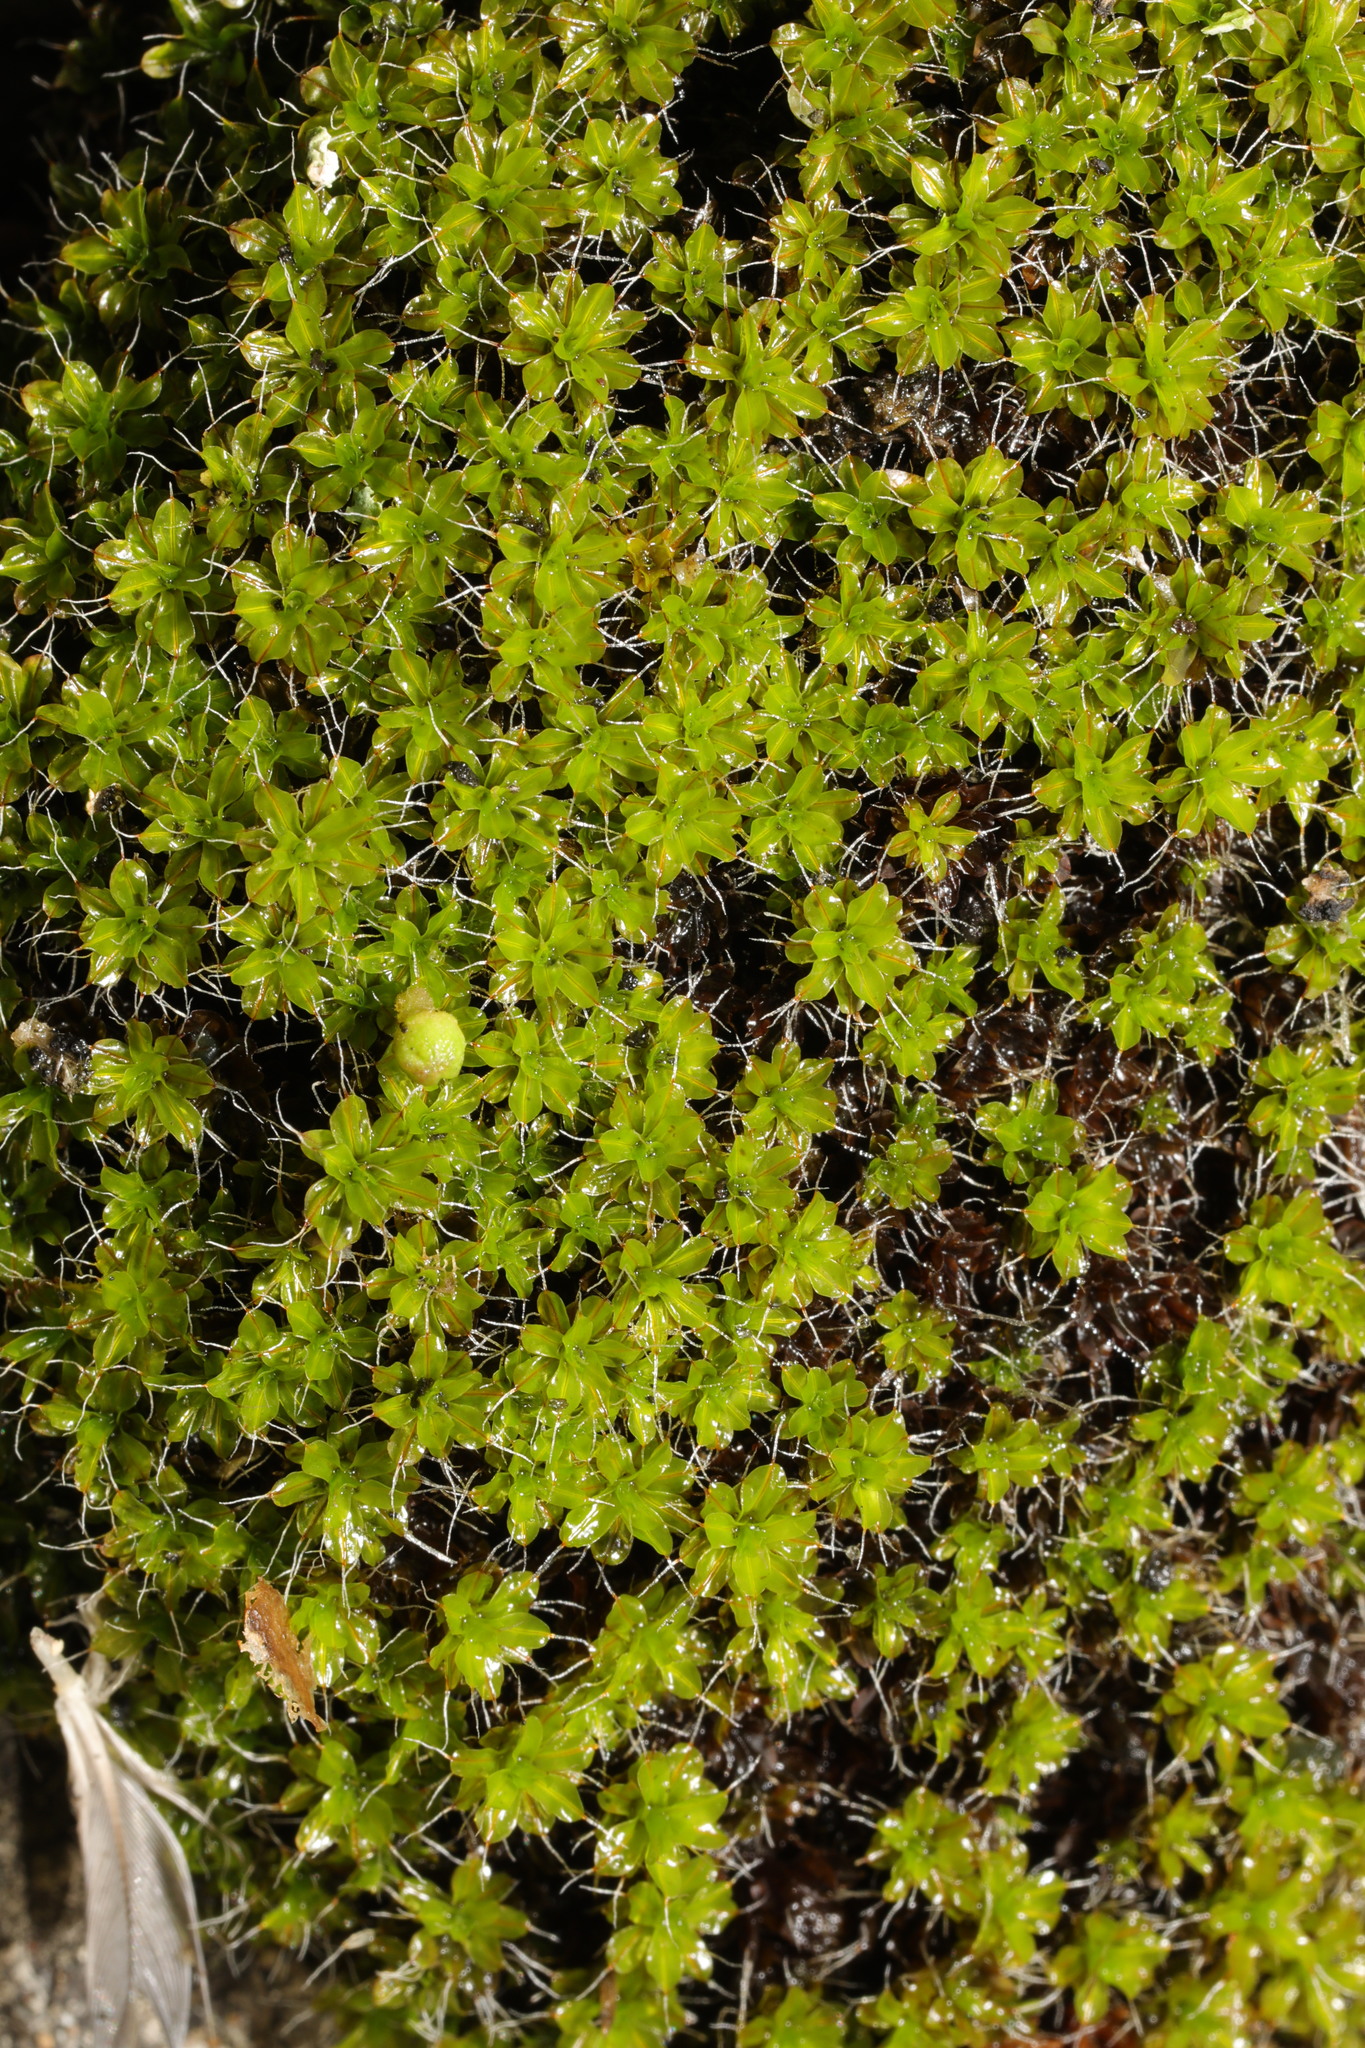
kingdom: Plantae
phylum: Bryophyta
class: Bryopsida
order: Pottiales
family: Pottiaceae
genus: Syntrichia
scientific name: Syntrichia montana
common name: Intermediate screw-moss
